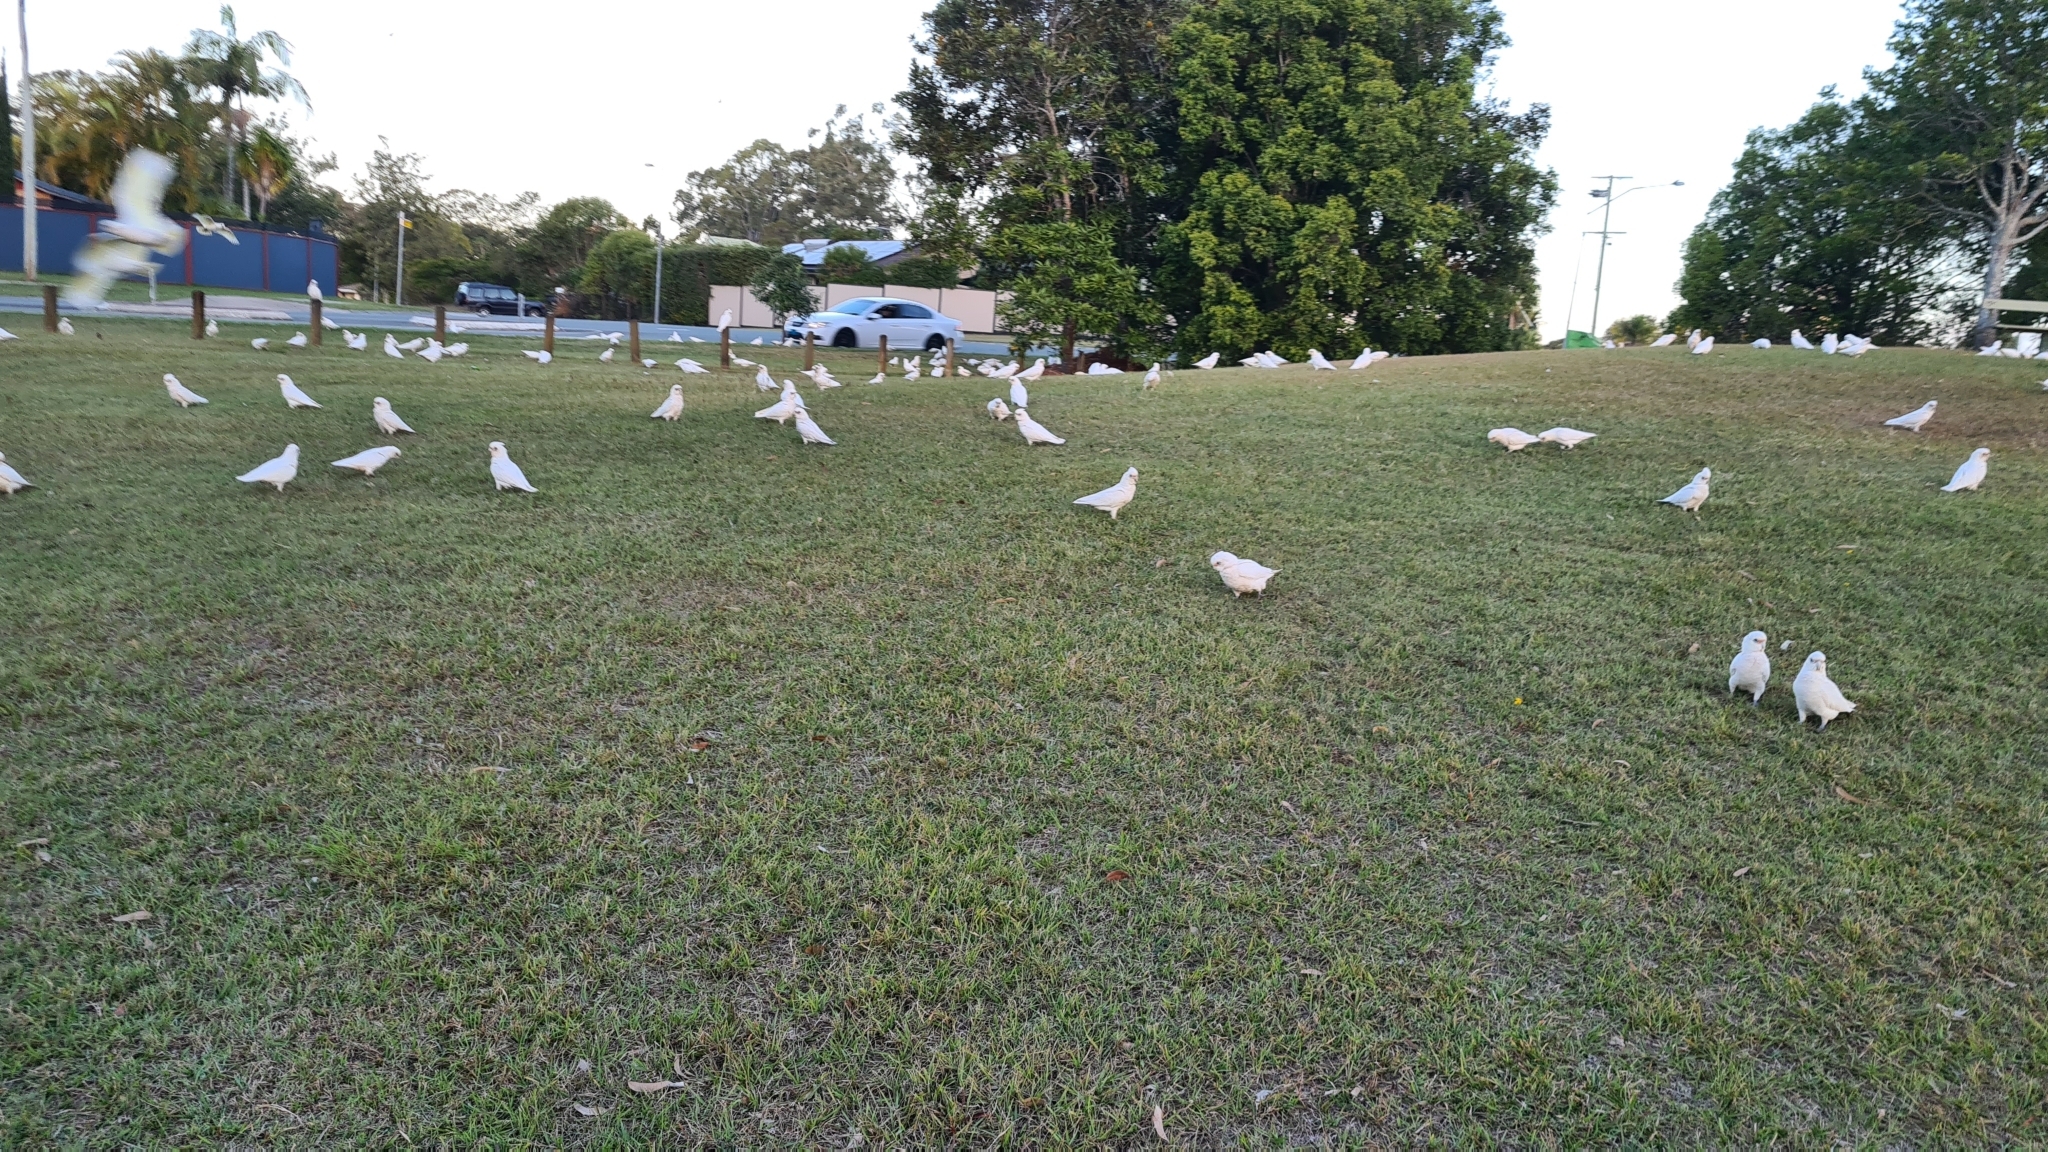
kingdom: Animalia
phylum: Chordata
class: Aves
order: Psittaciformes
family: Psittacidae
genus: Cacatua
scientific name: Cacatua sanguinea
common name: Little corella
